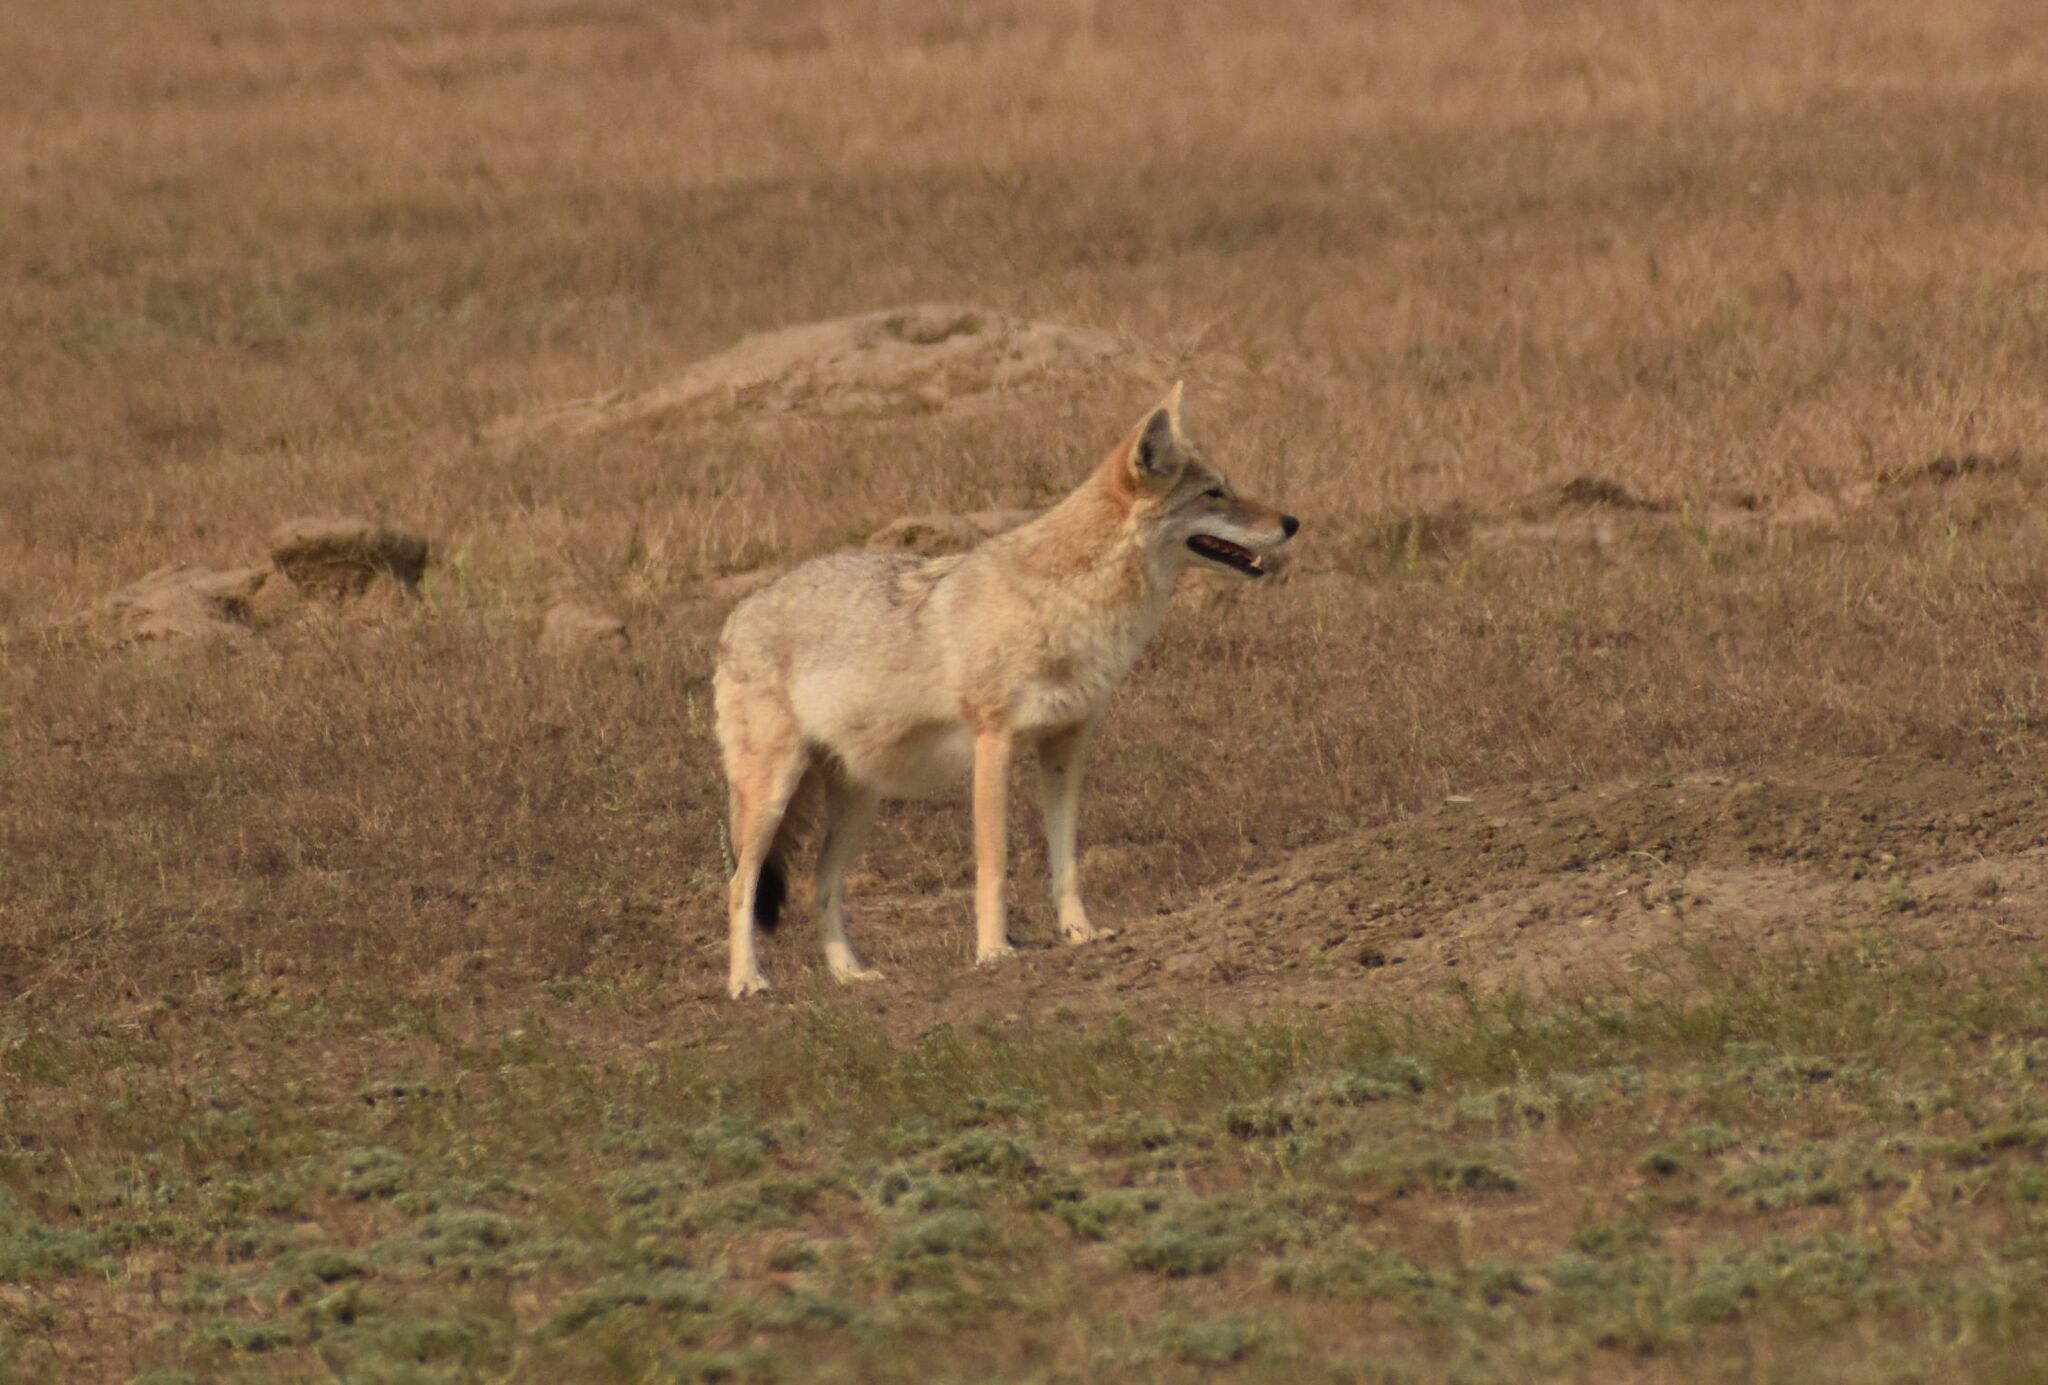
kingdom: Animalia
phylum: Chordata
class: Mammalia
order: Carnivora
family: Canidae
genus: Canis
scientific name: Canis latrans
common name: Coyote
